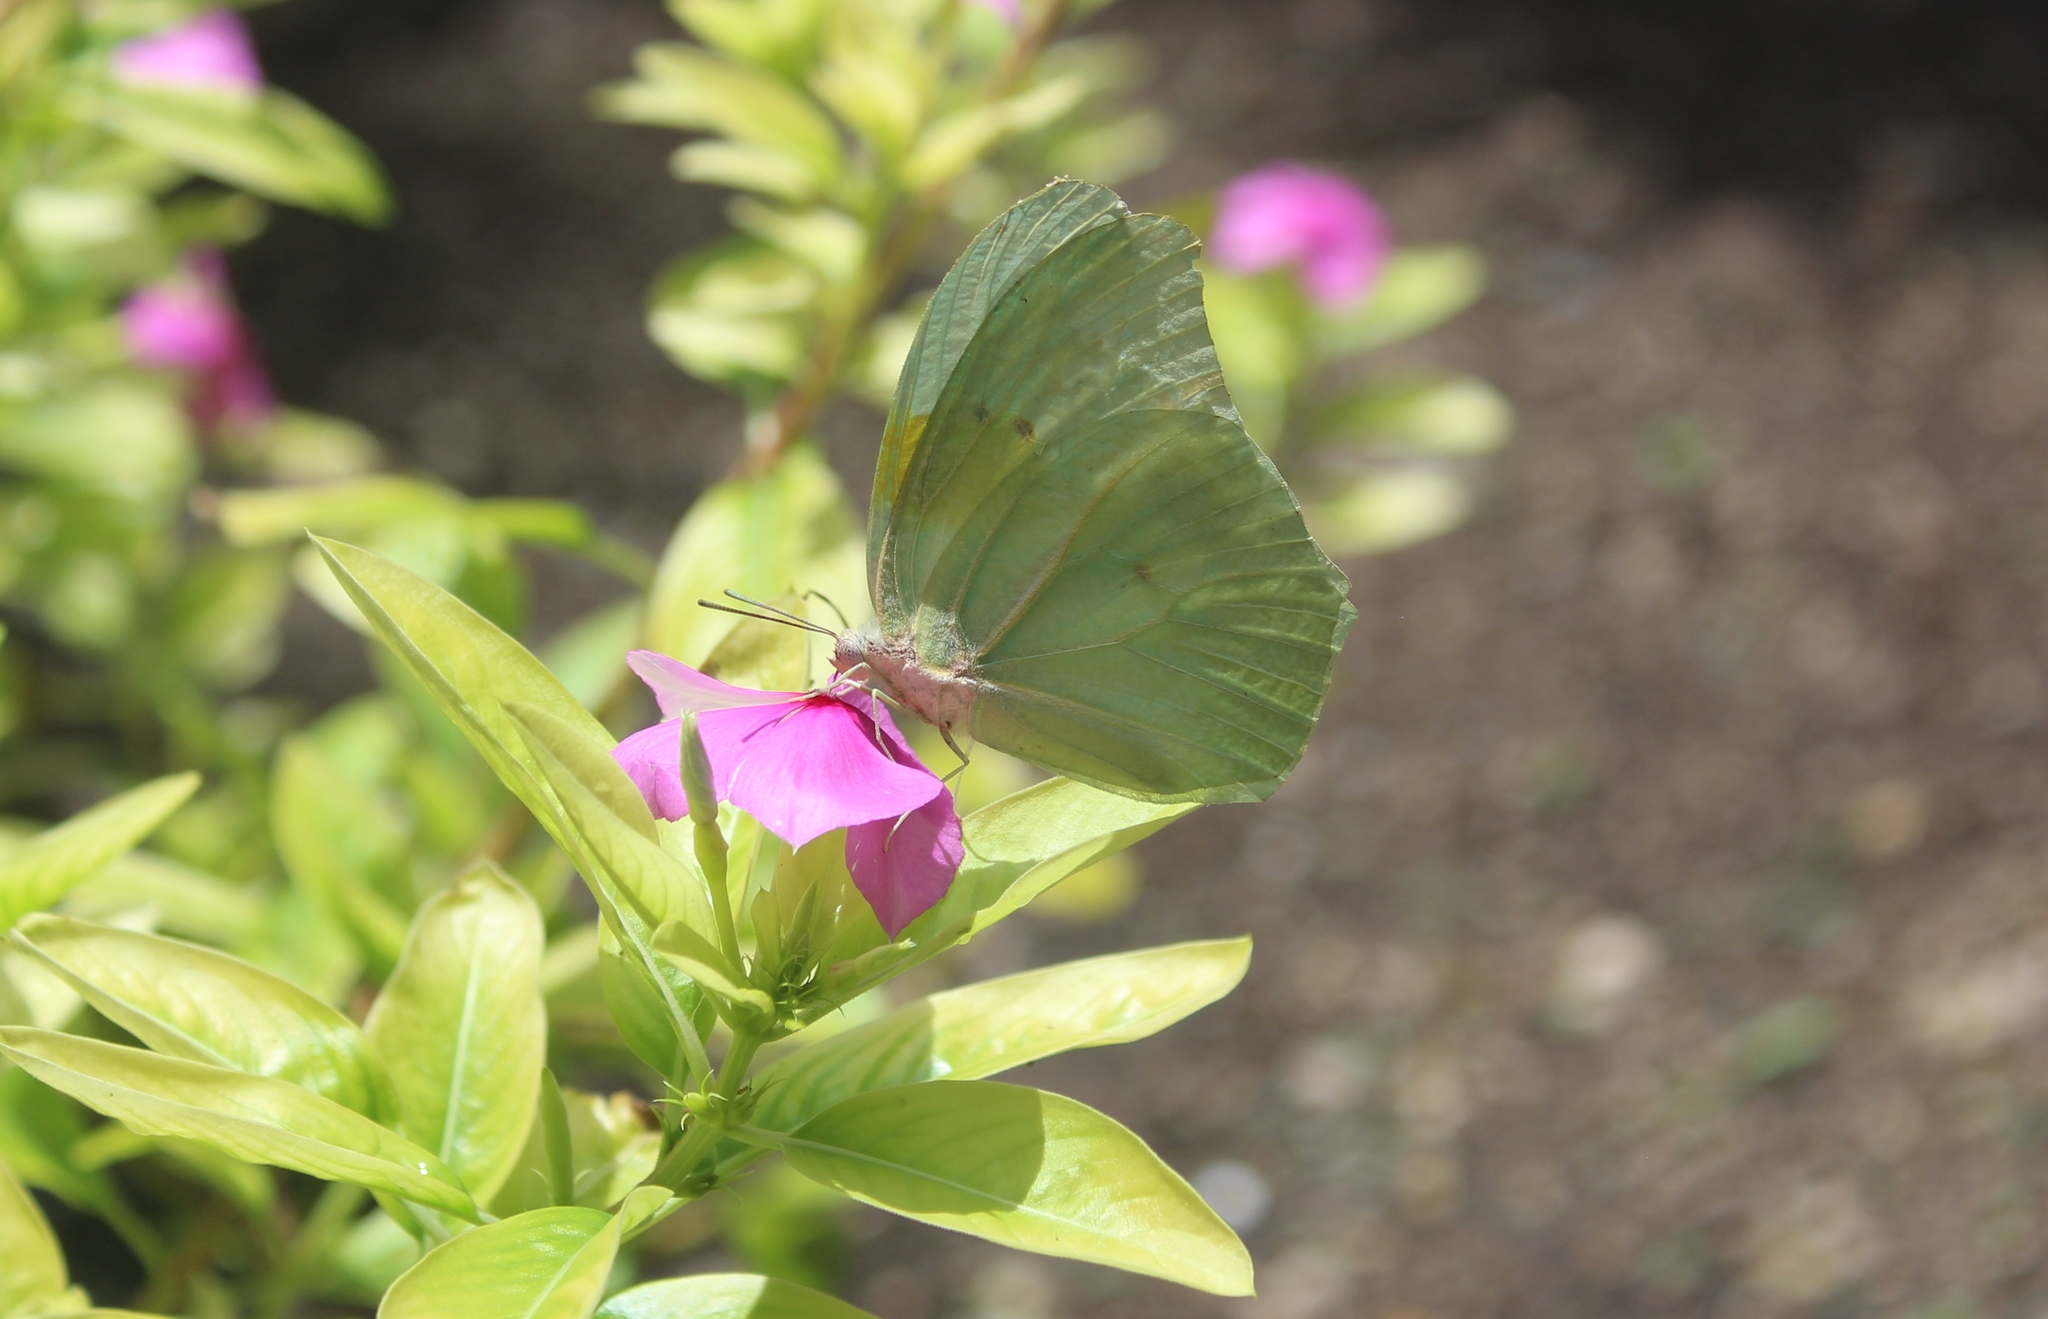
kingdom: Animalia
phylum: Arthropoda
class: Insecta
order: Lepidoptera
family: Pieridae
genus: Anteos
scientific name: Anteos clorinde
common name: White angled sulphur
